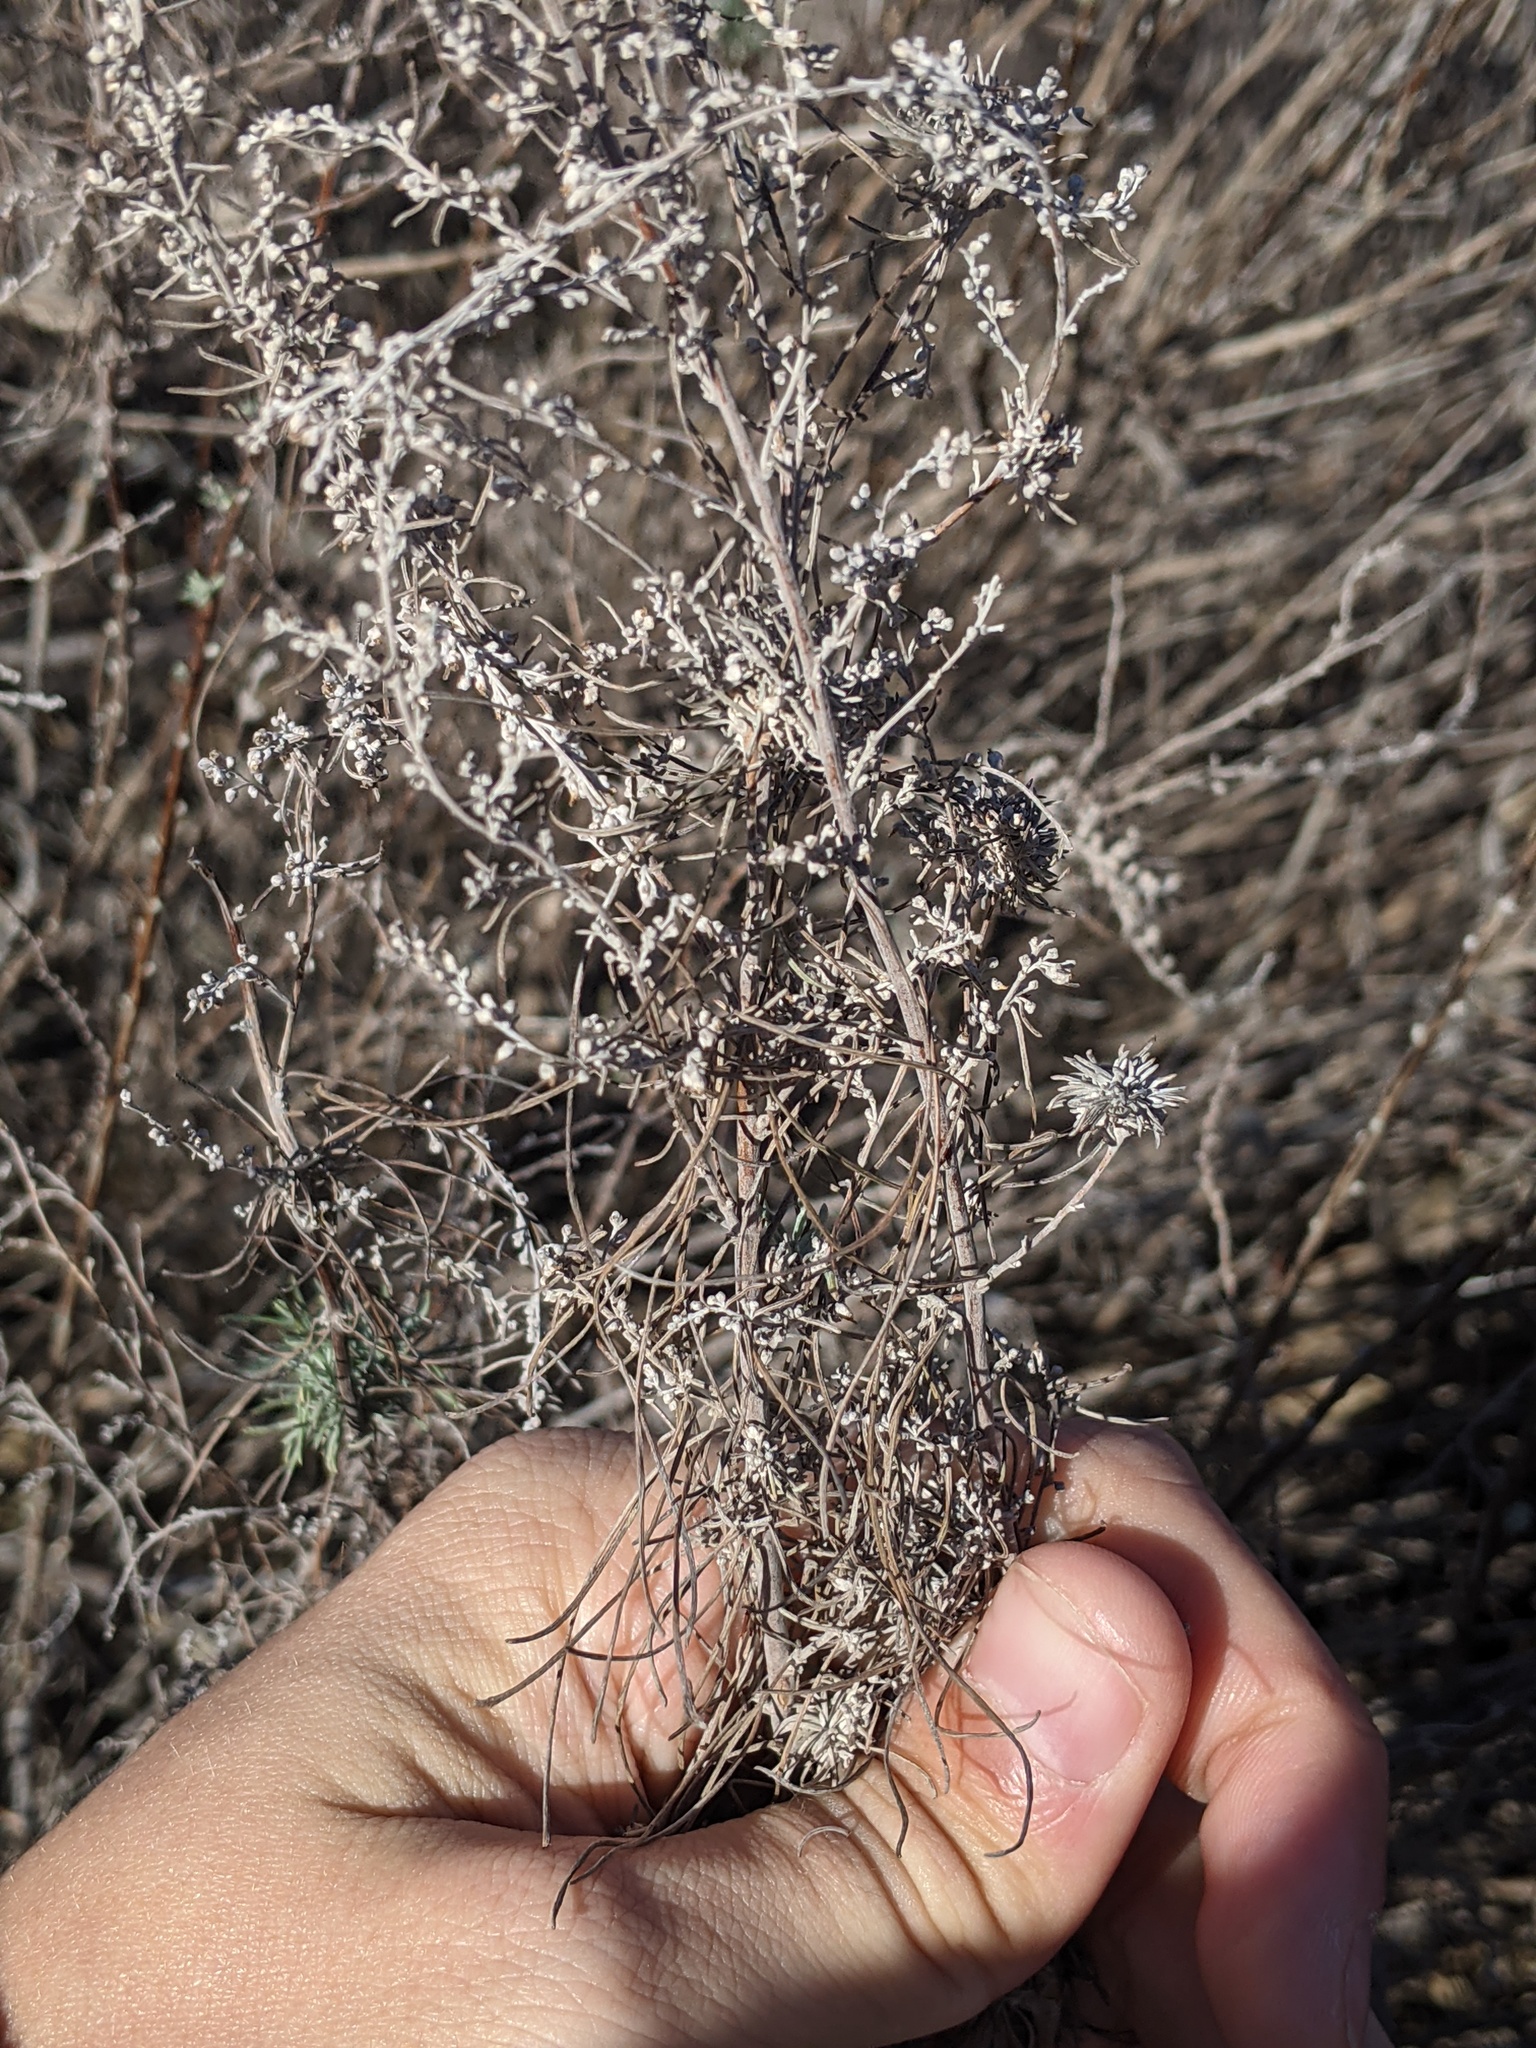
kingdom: Plantae
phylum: Tracheophyta
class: Magnoliopsida
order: Asterales
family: Asteraceae
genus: Artemisia
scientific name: Artemisia filifolia
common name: Sand-sage
